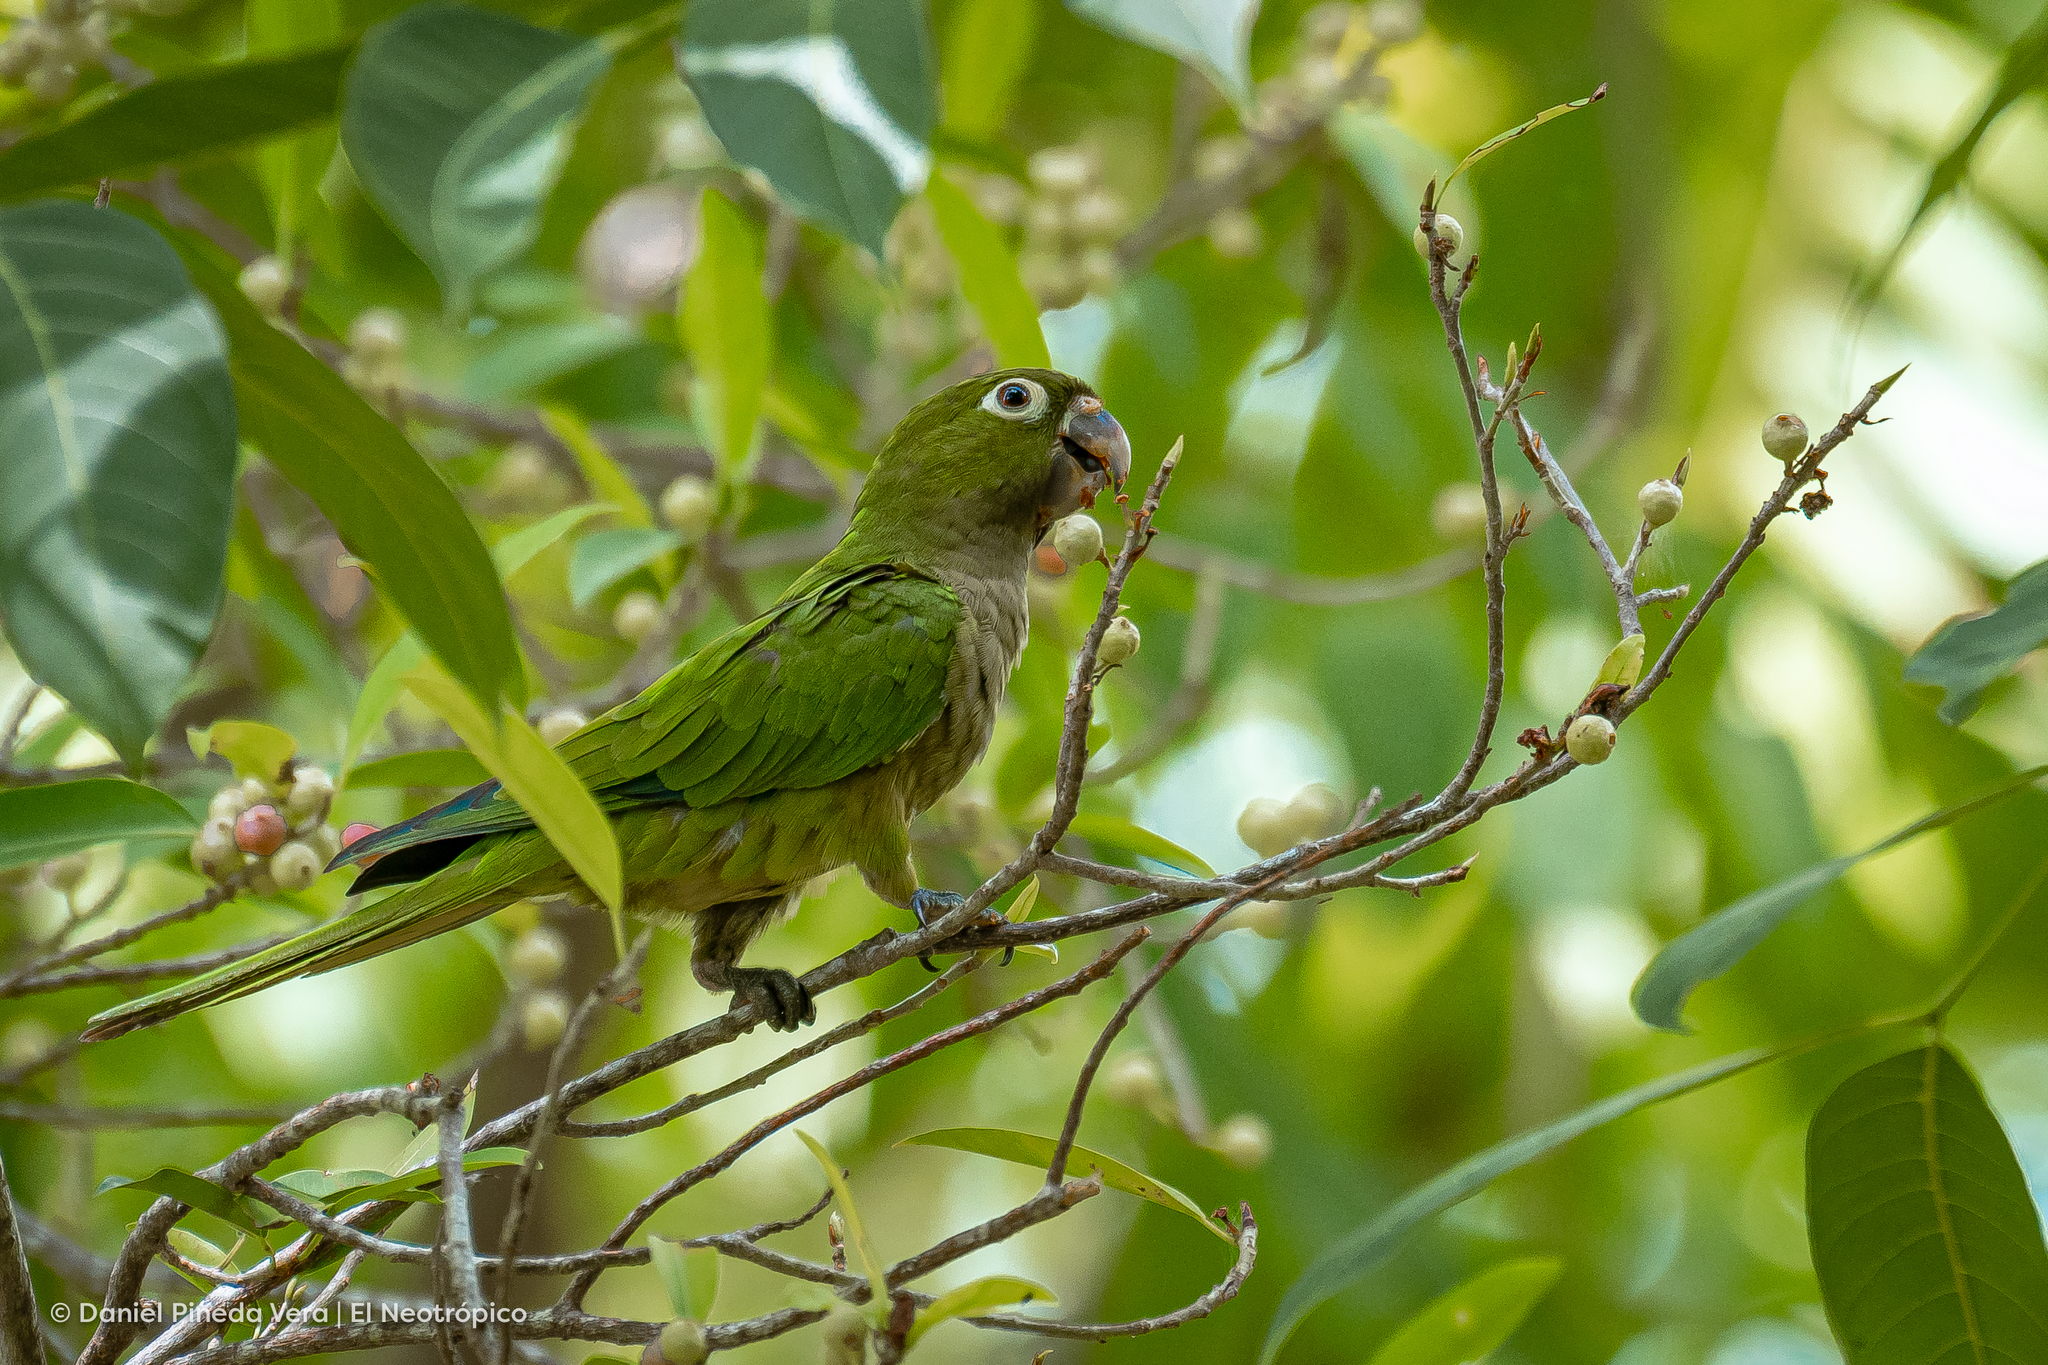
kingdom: Animalia
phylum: Chordata
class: Aves
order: Psittaciformes
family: Psittacidae
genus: Aratinga
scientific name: Aratinga nana
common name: Olive-throated parakeet
